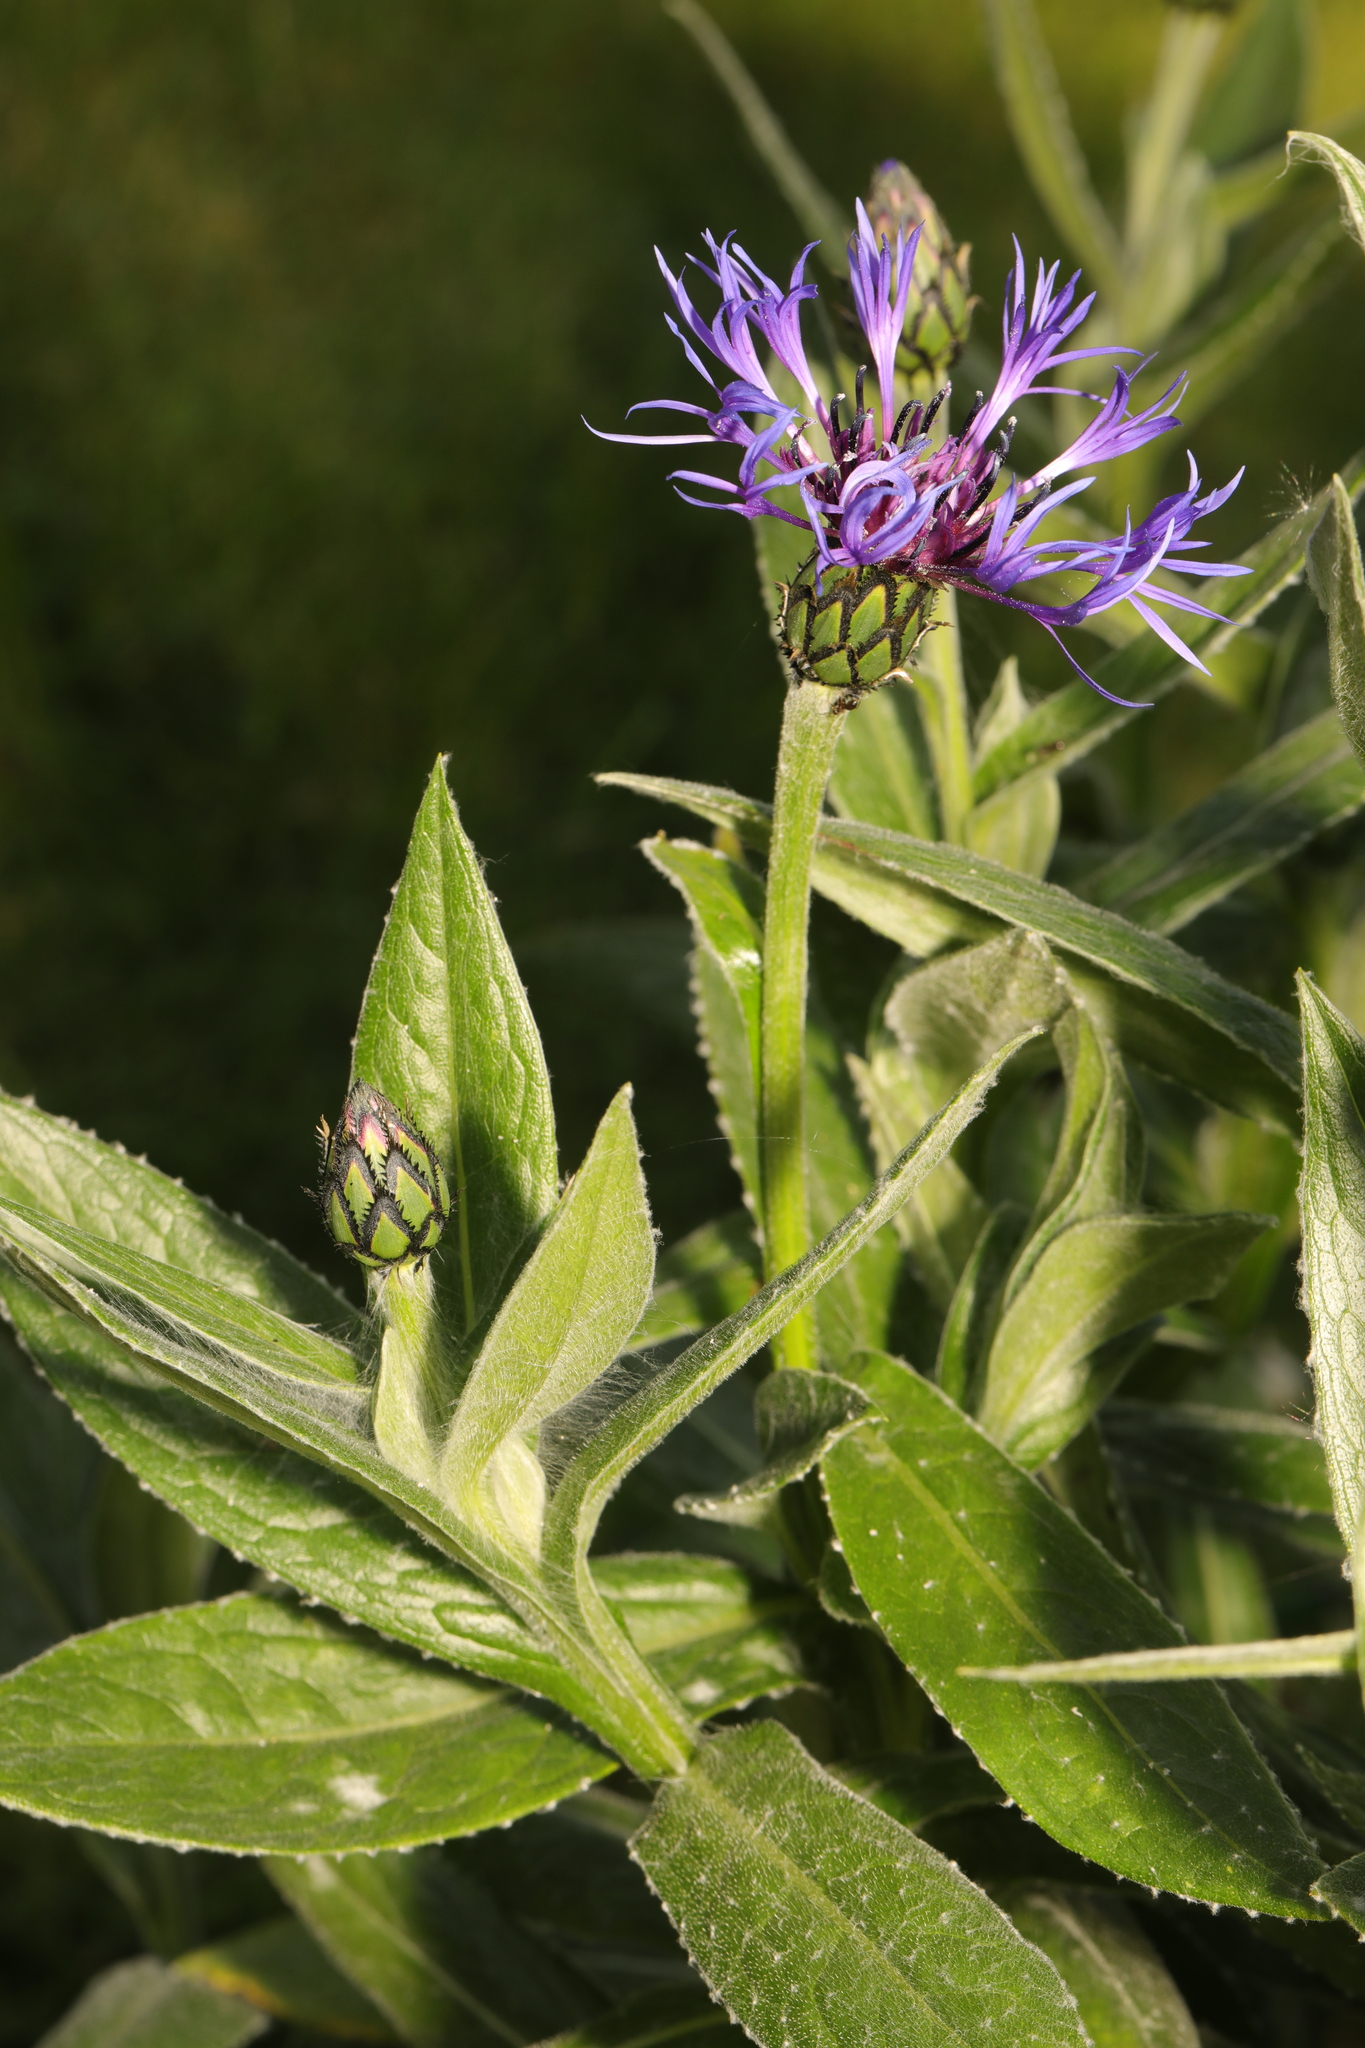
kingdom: Plantae
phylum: Tracheophyta
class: Magnoliopsida
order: Asterales
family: Asteraceae
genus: Centaurea
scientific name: Centaurea montana
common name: Perennial cornflower
